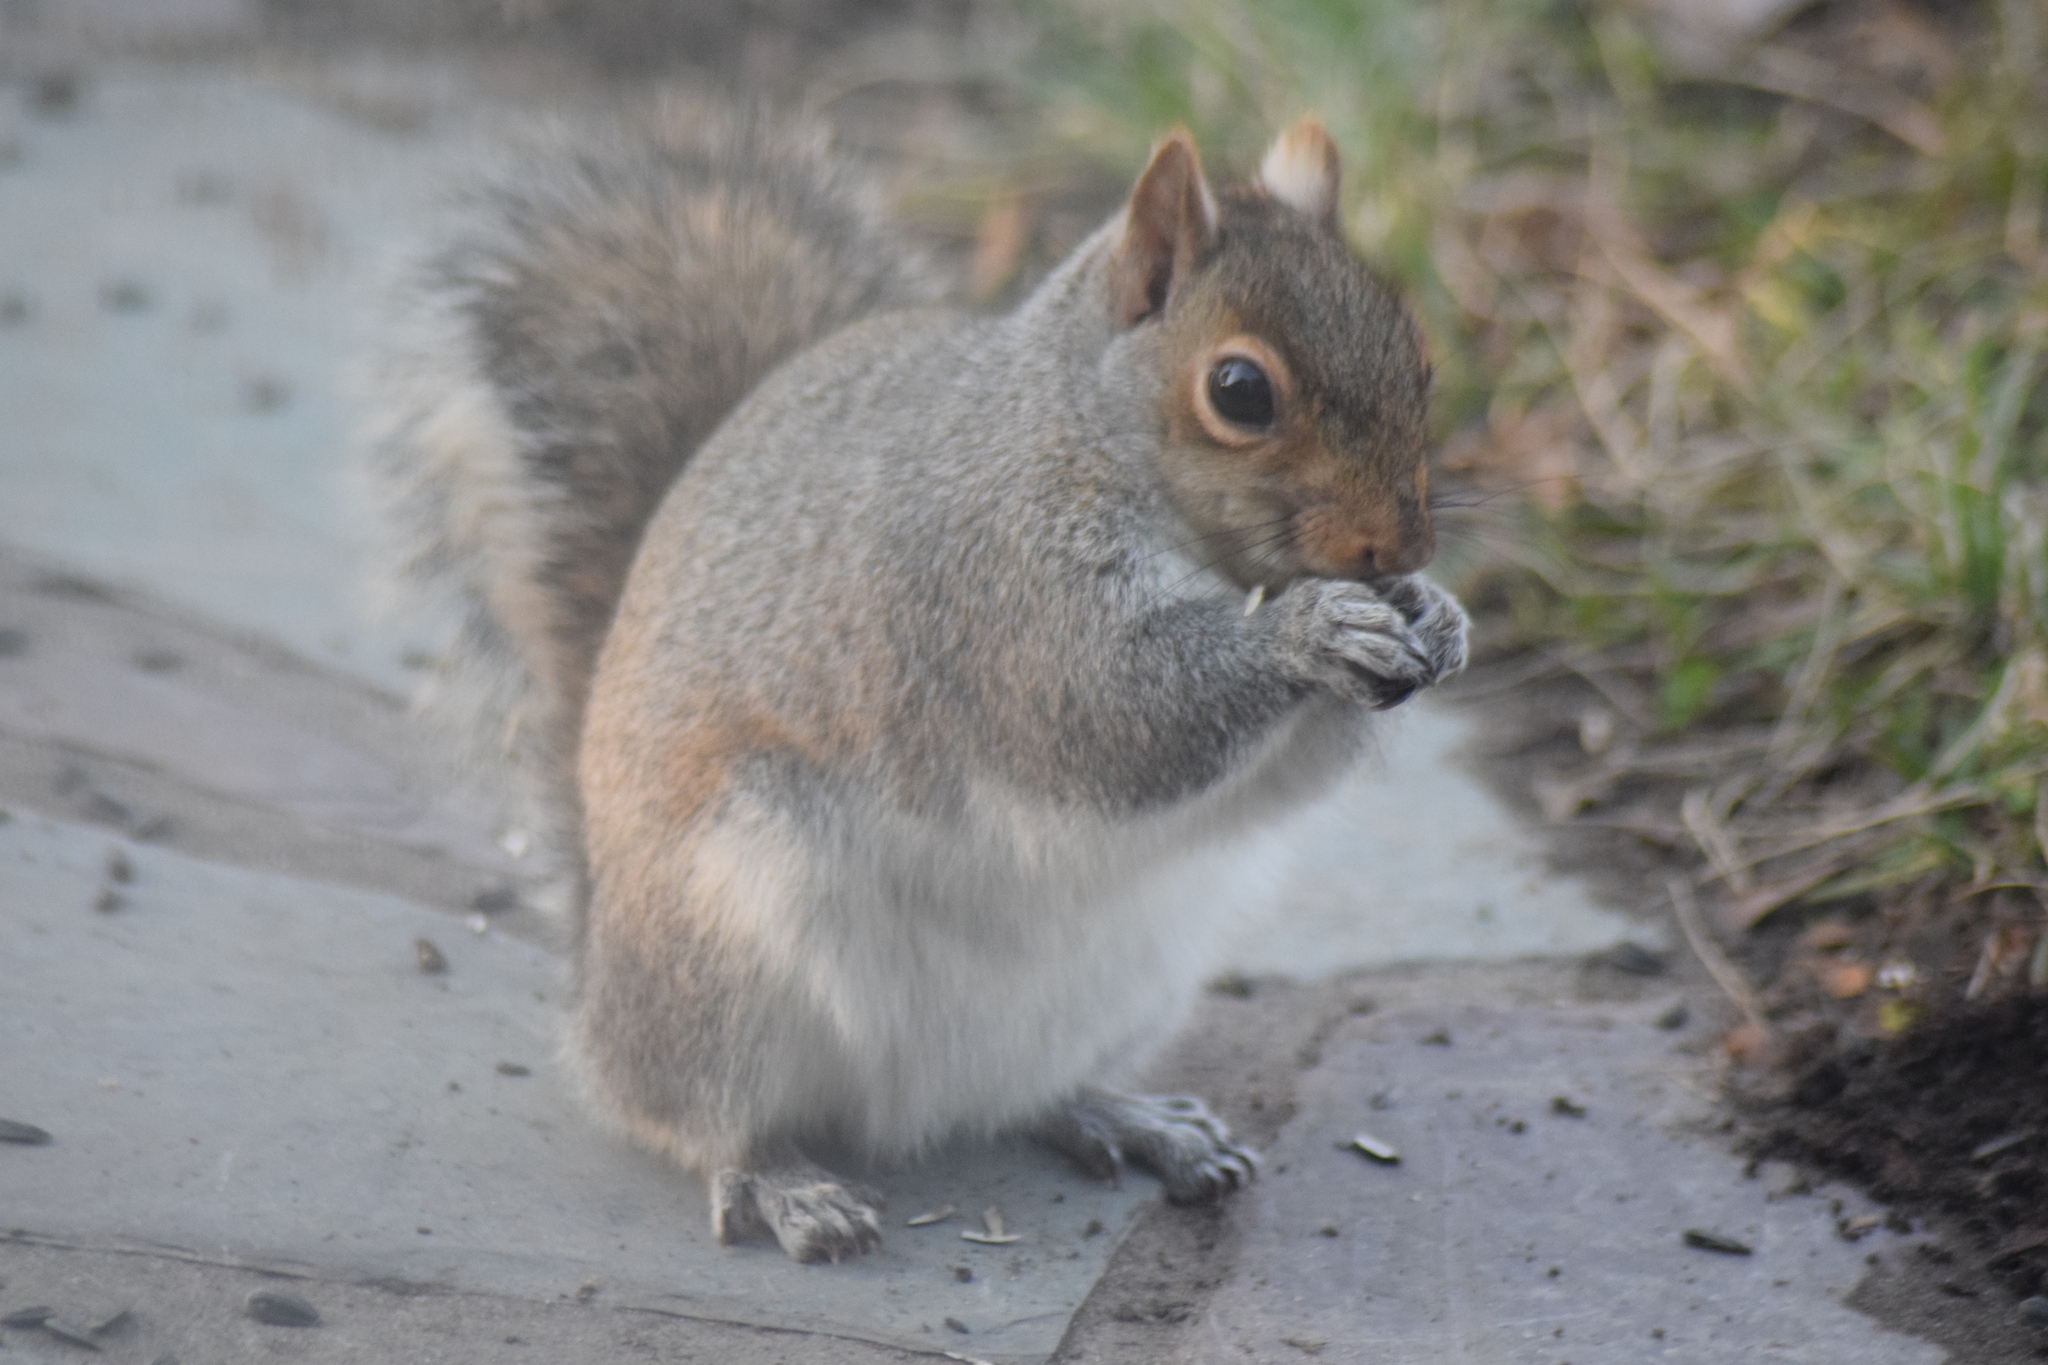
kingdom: Animalia
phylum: Chordata
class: Mammalia
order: Rodentia
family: Sciuridae
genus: Sciurus
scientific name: Sciurus carolinensis
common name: Eastern gray squirrel
